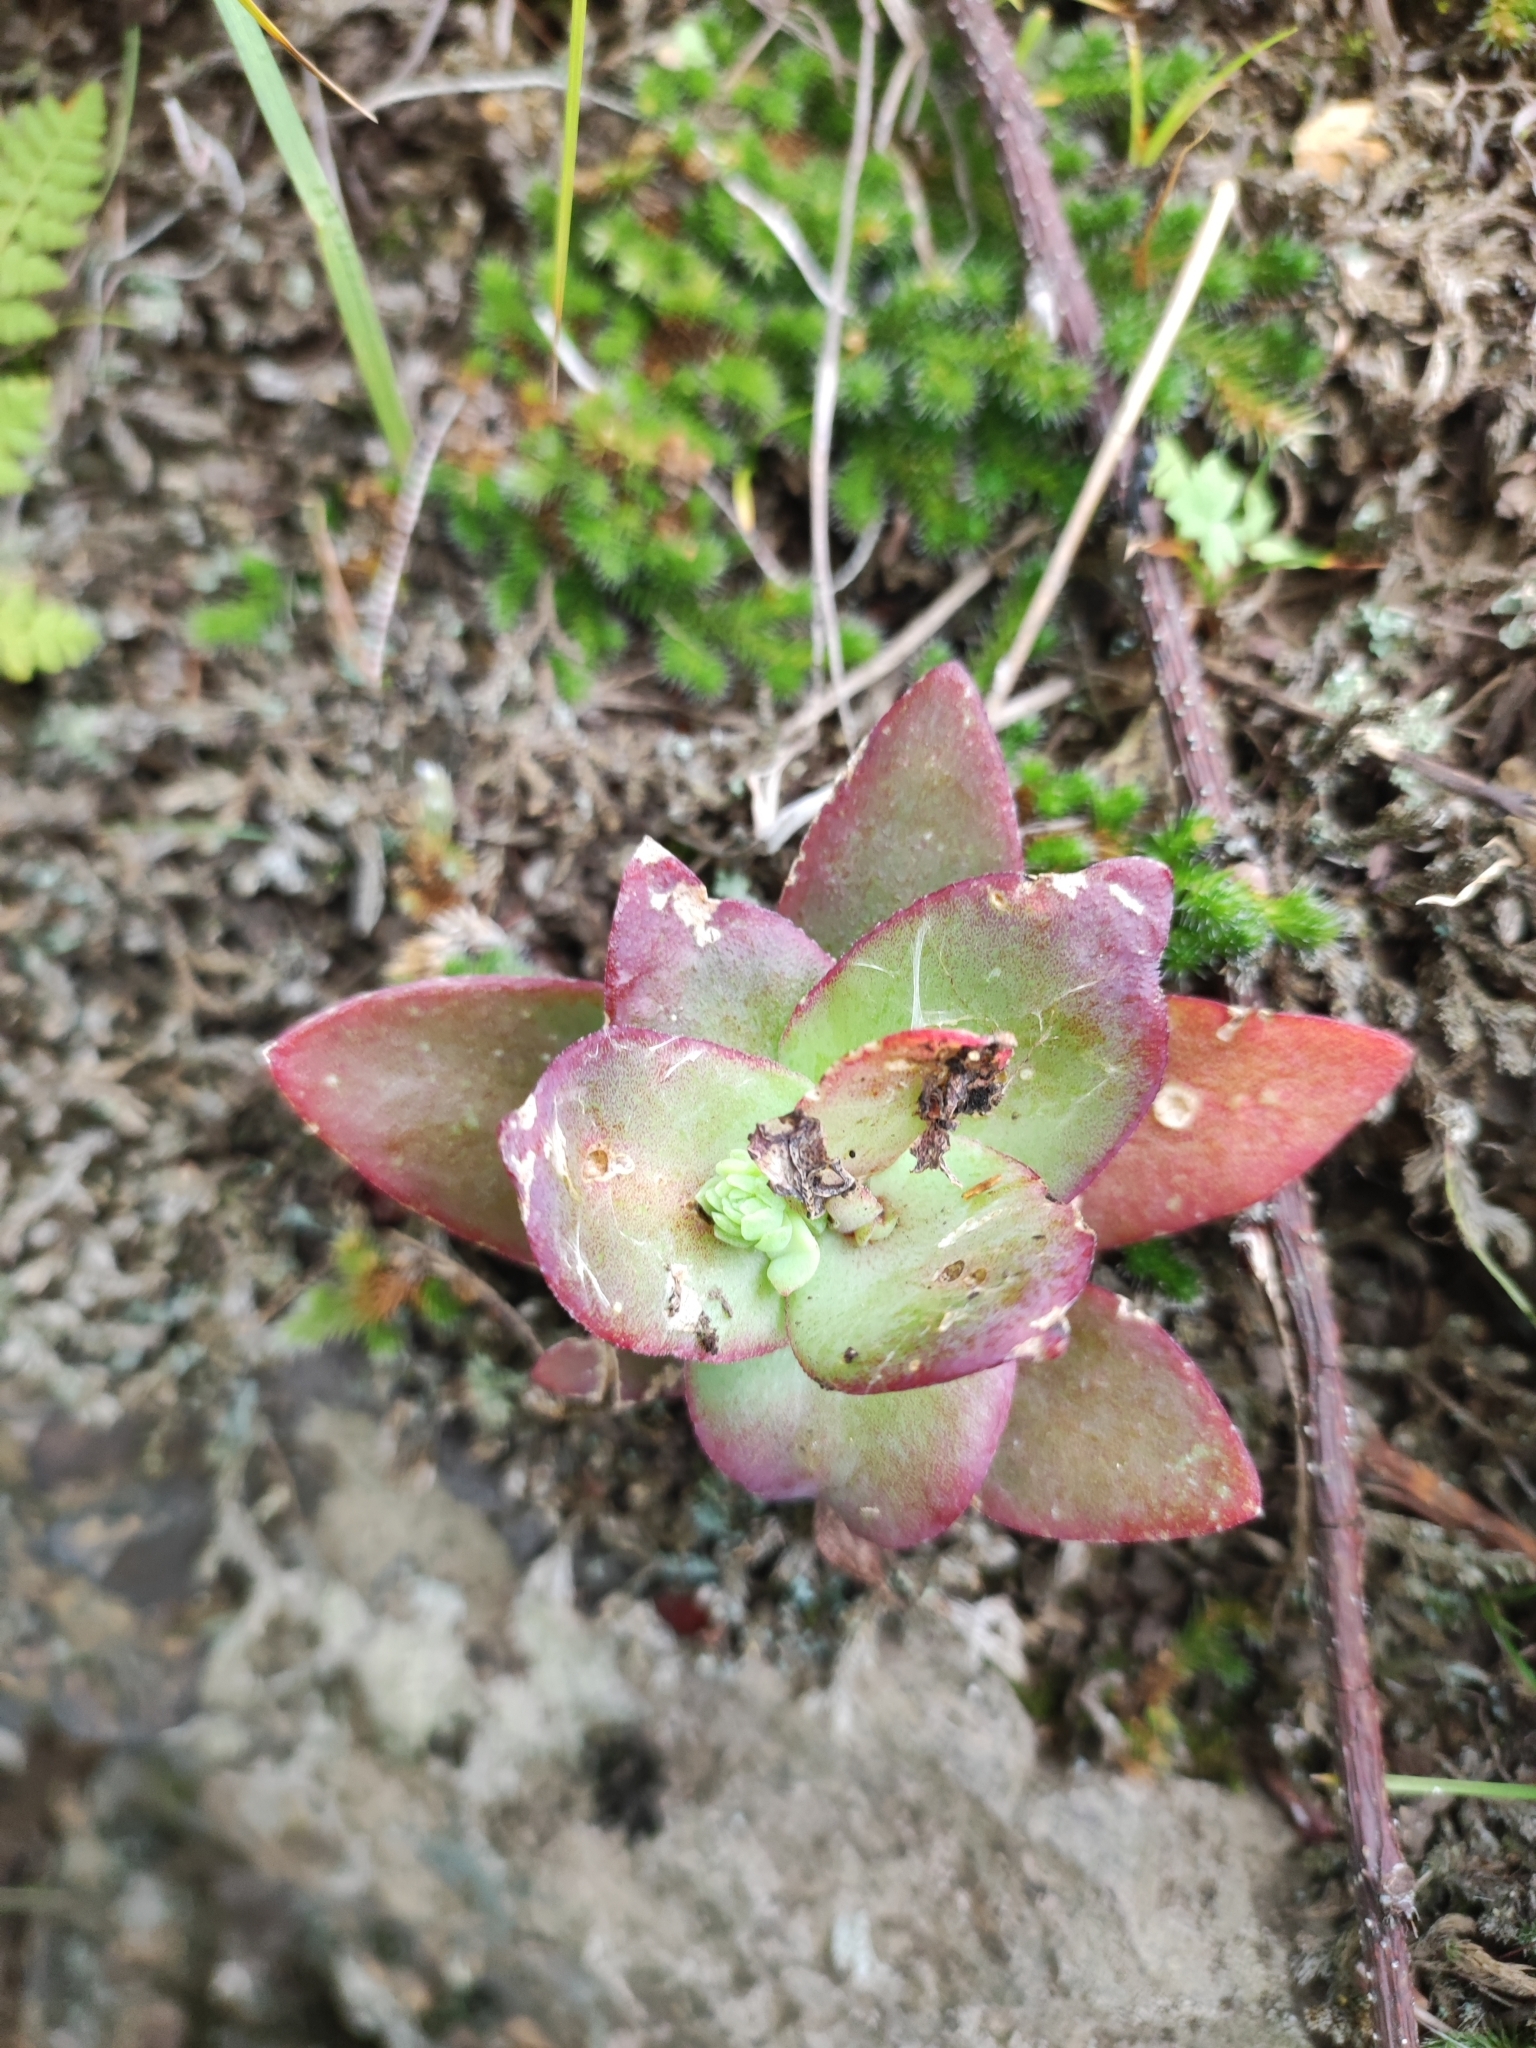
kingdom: Plantae
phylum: Tracheophyta
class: Magnoliopsida
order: Saxifragales
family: Crassulaceae
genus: Orostachys
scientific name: Orostachys malacophylla
